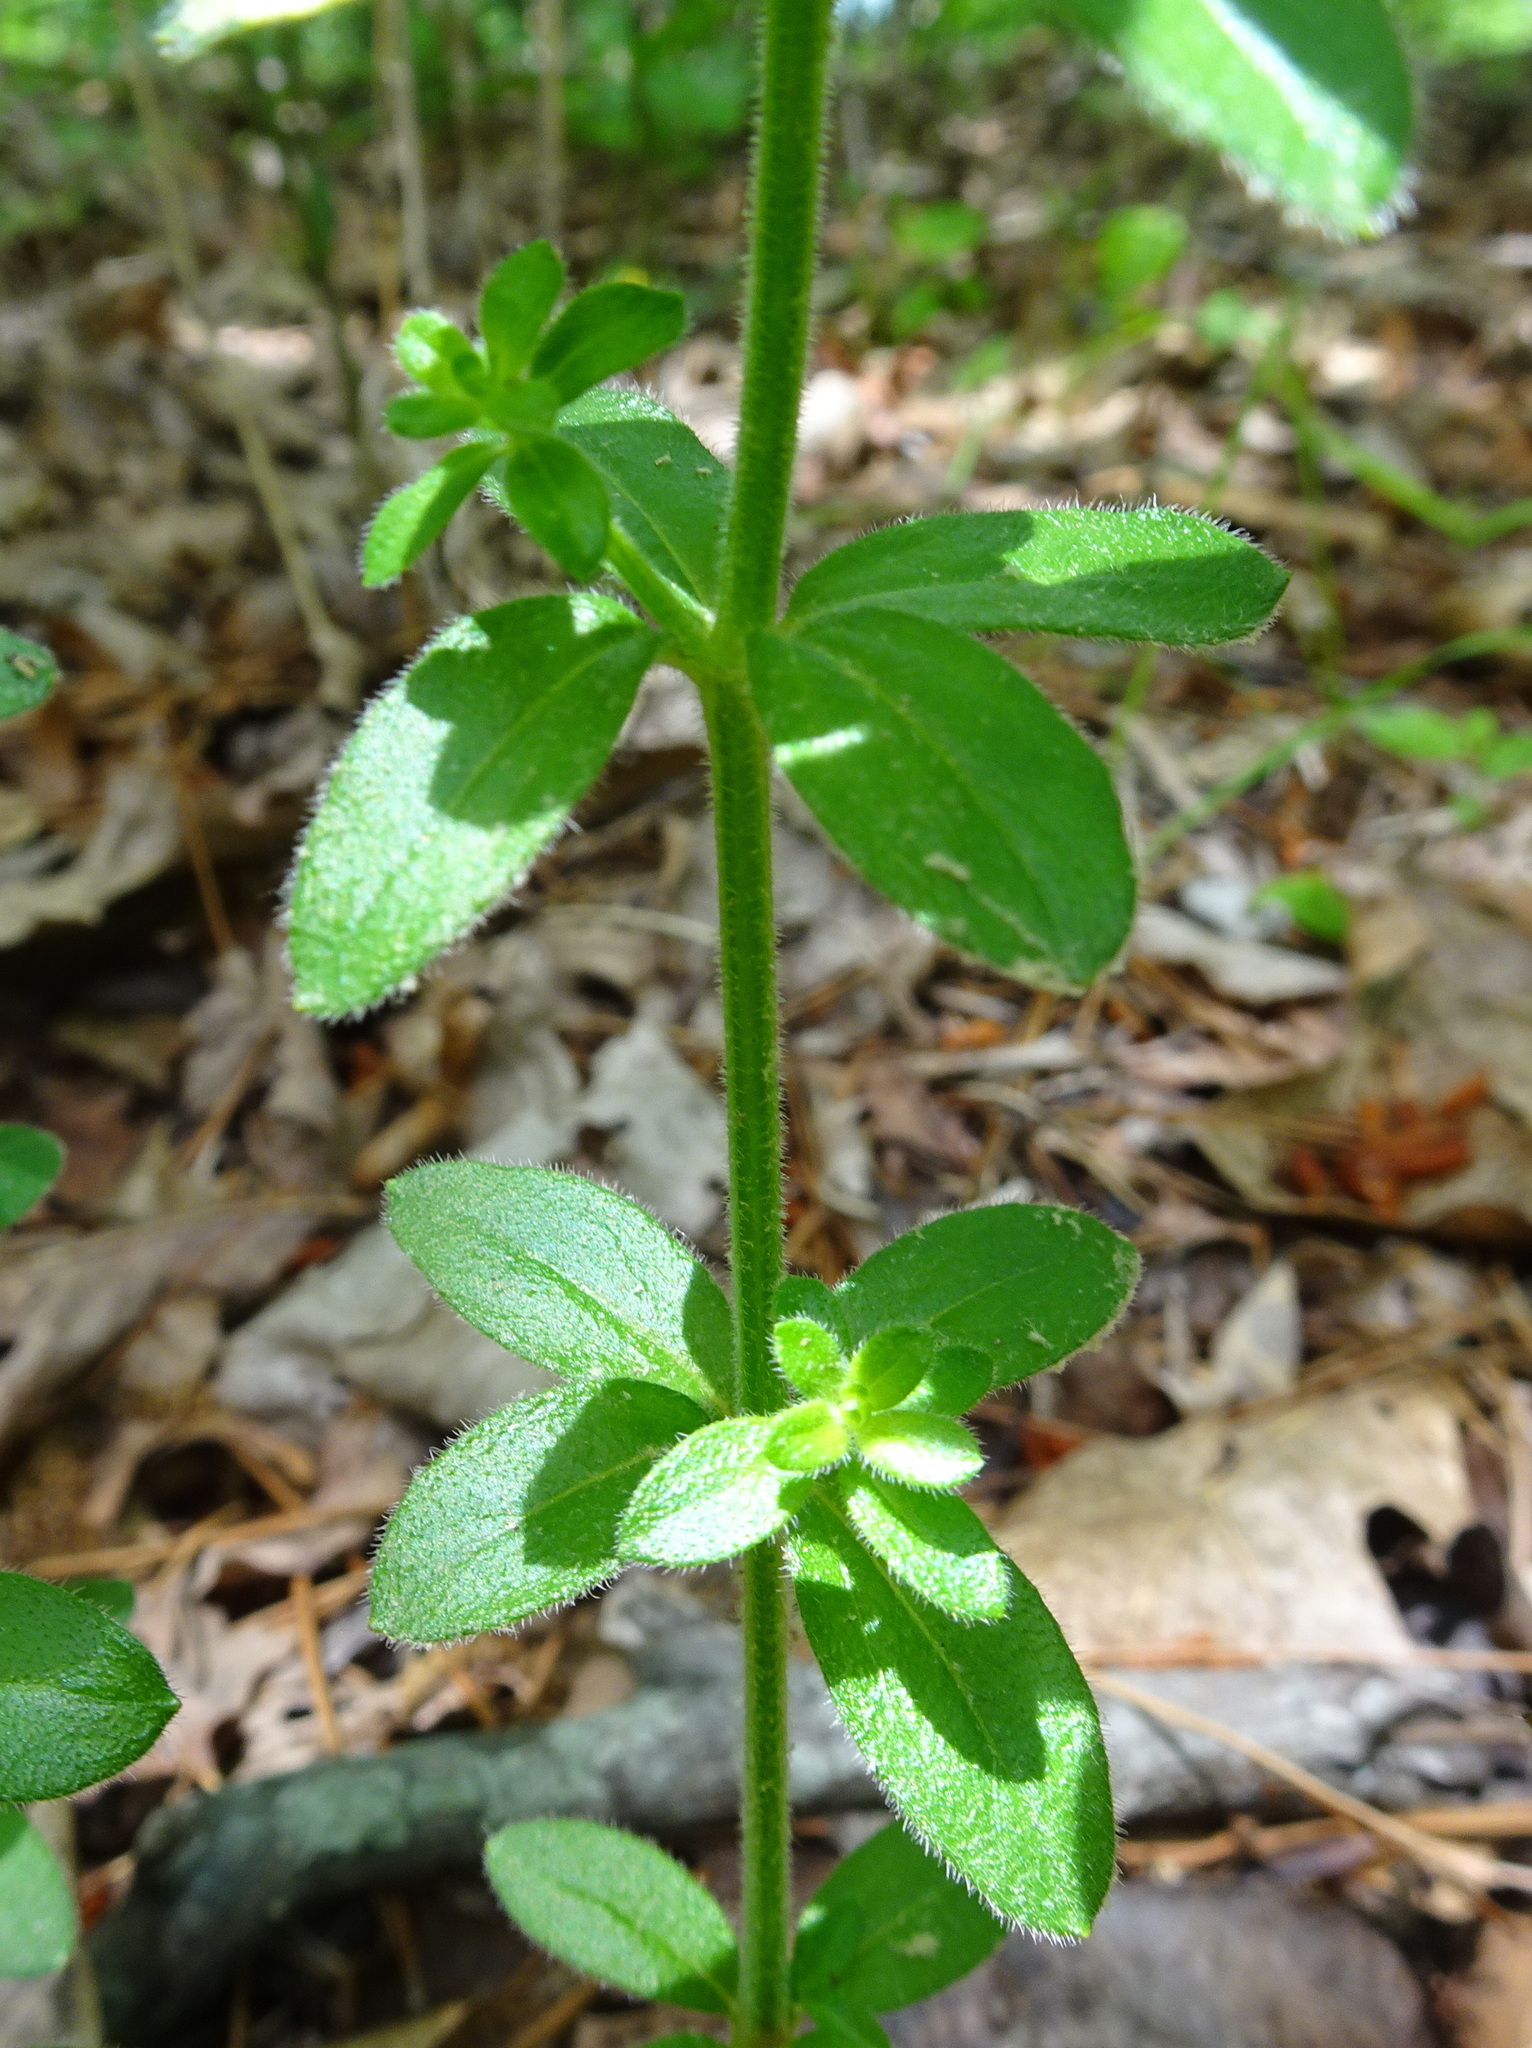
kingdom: Plantae
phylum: Tracheophyta
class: Magnoliopsida
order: Gentianales
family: Rubiaceae
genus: Galium
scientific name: Galium circaezans
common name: Forest bedstraw
